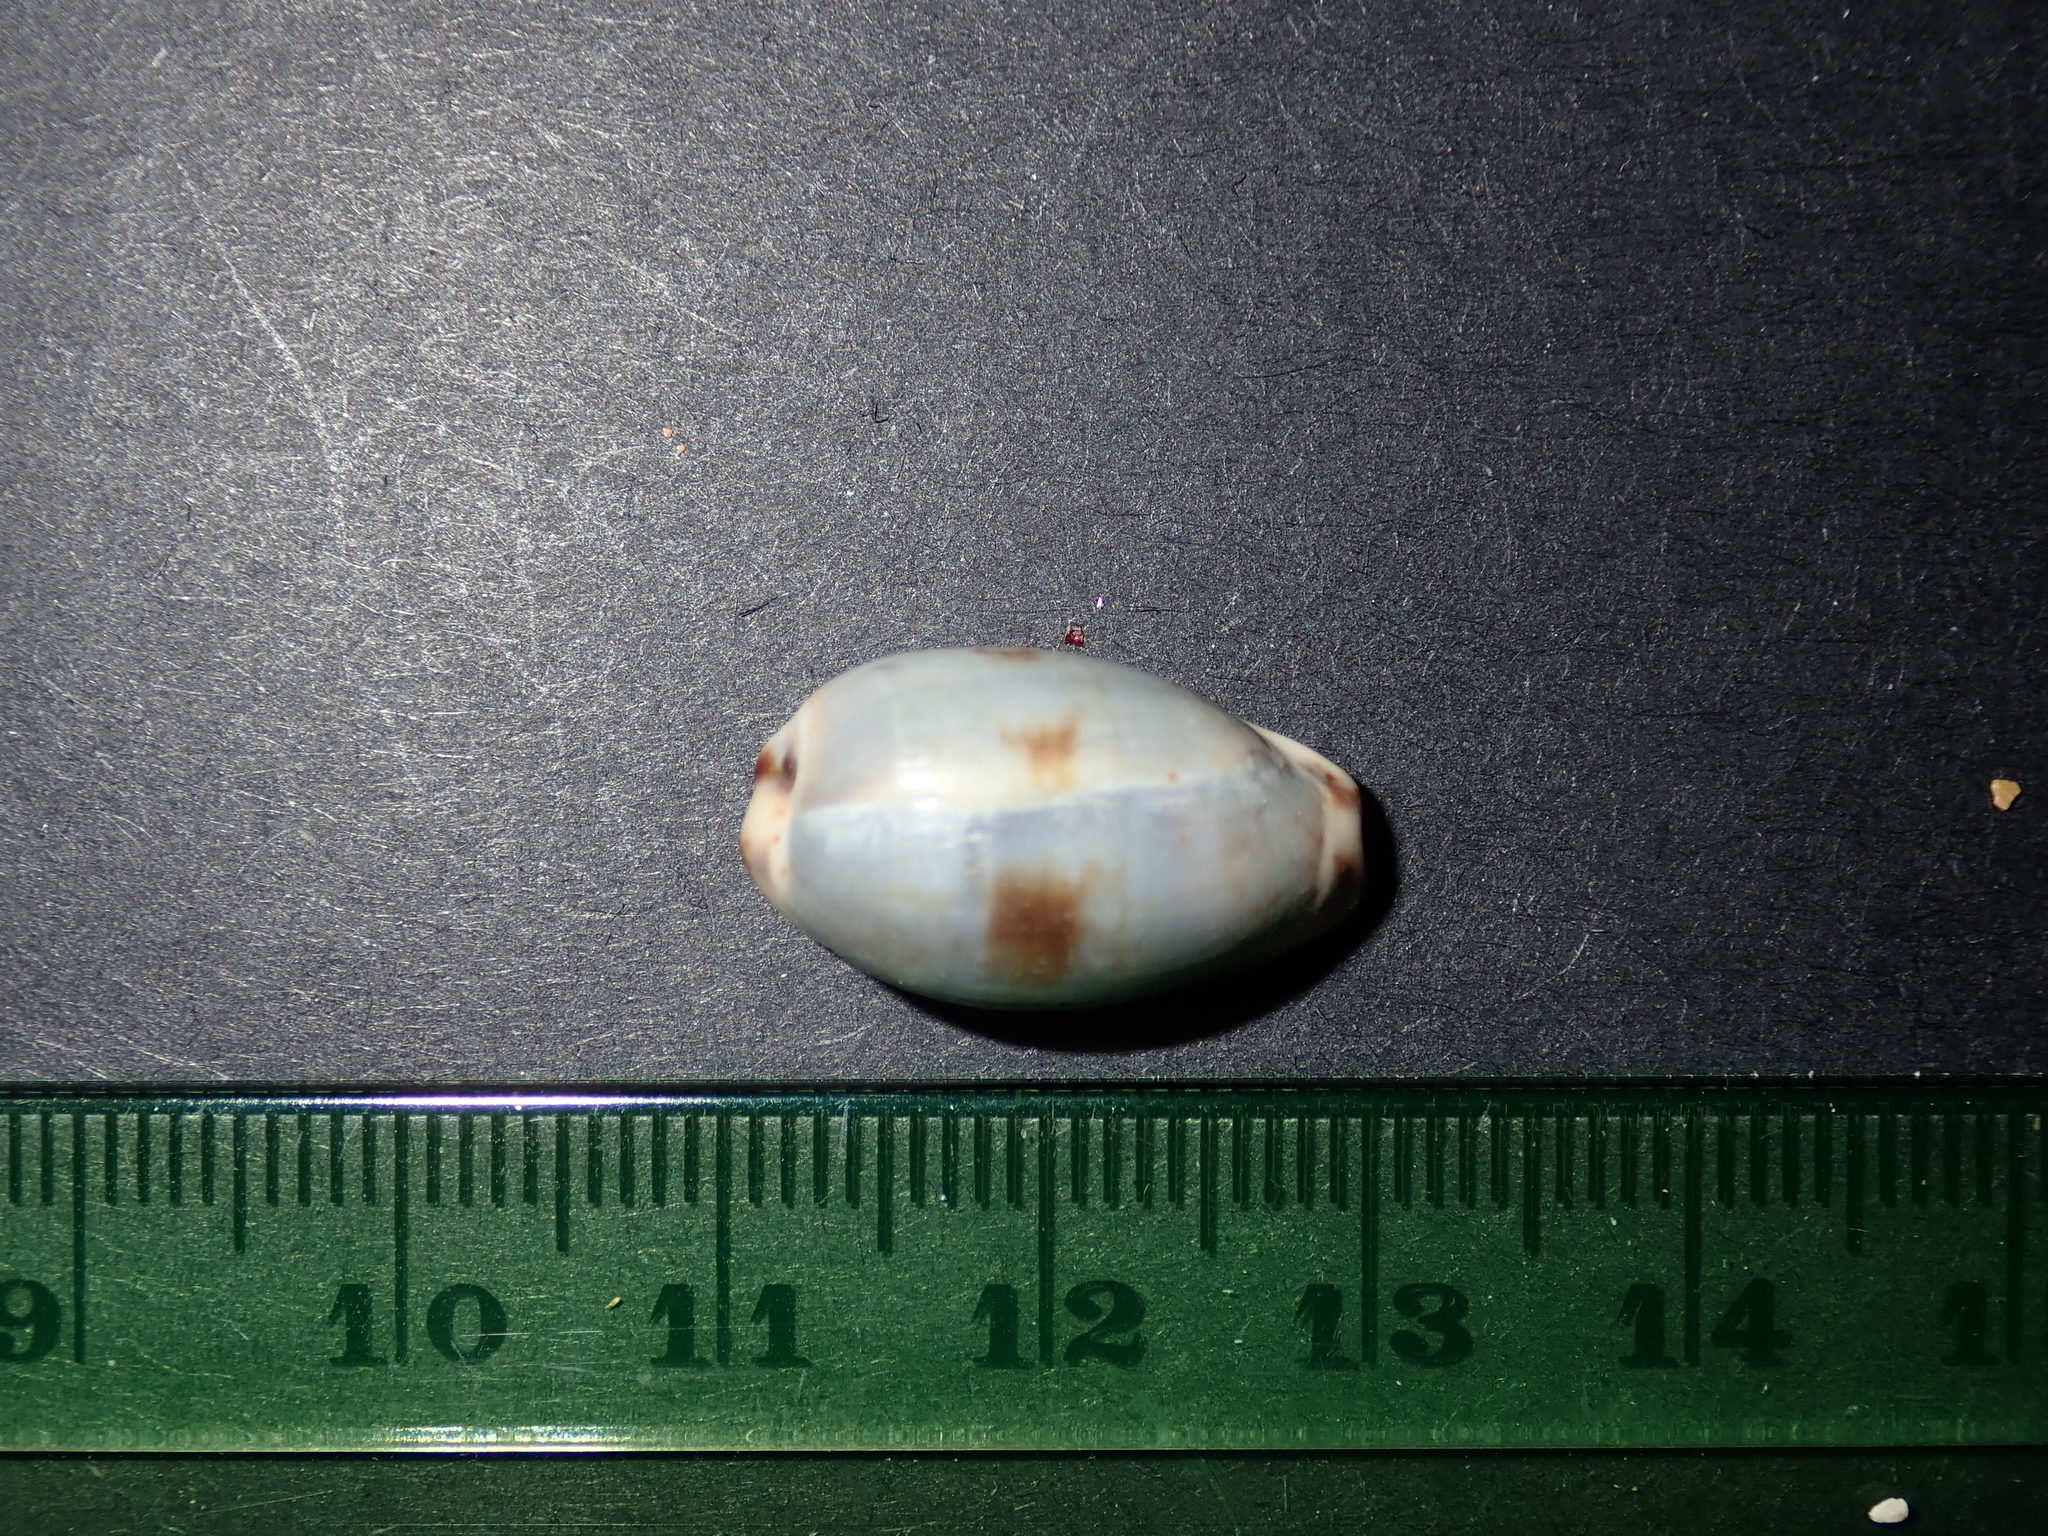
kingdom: Animalia
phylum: Mollusca
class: Gastropoda
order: Littorinimorpha
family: Cypraeidae
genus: Purpuradusta
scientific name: Purpuradusta gracilis
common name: Graceful cowrie
